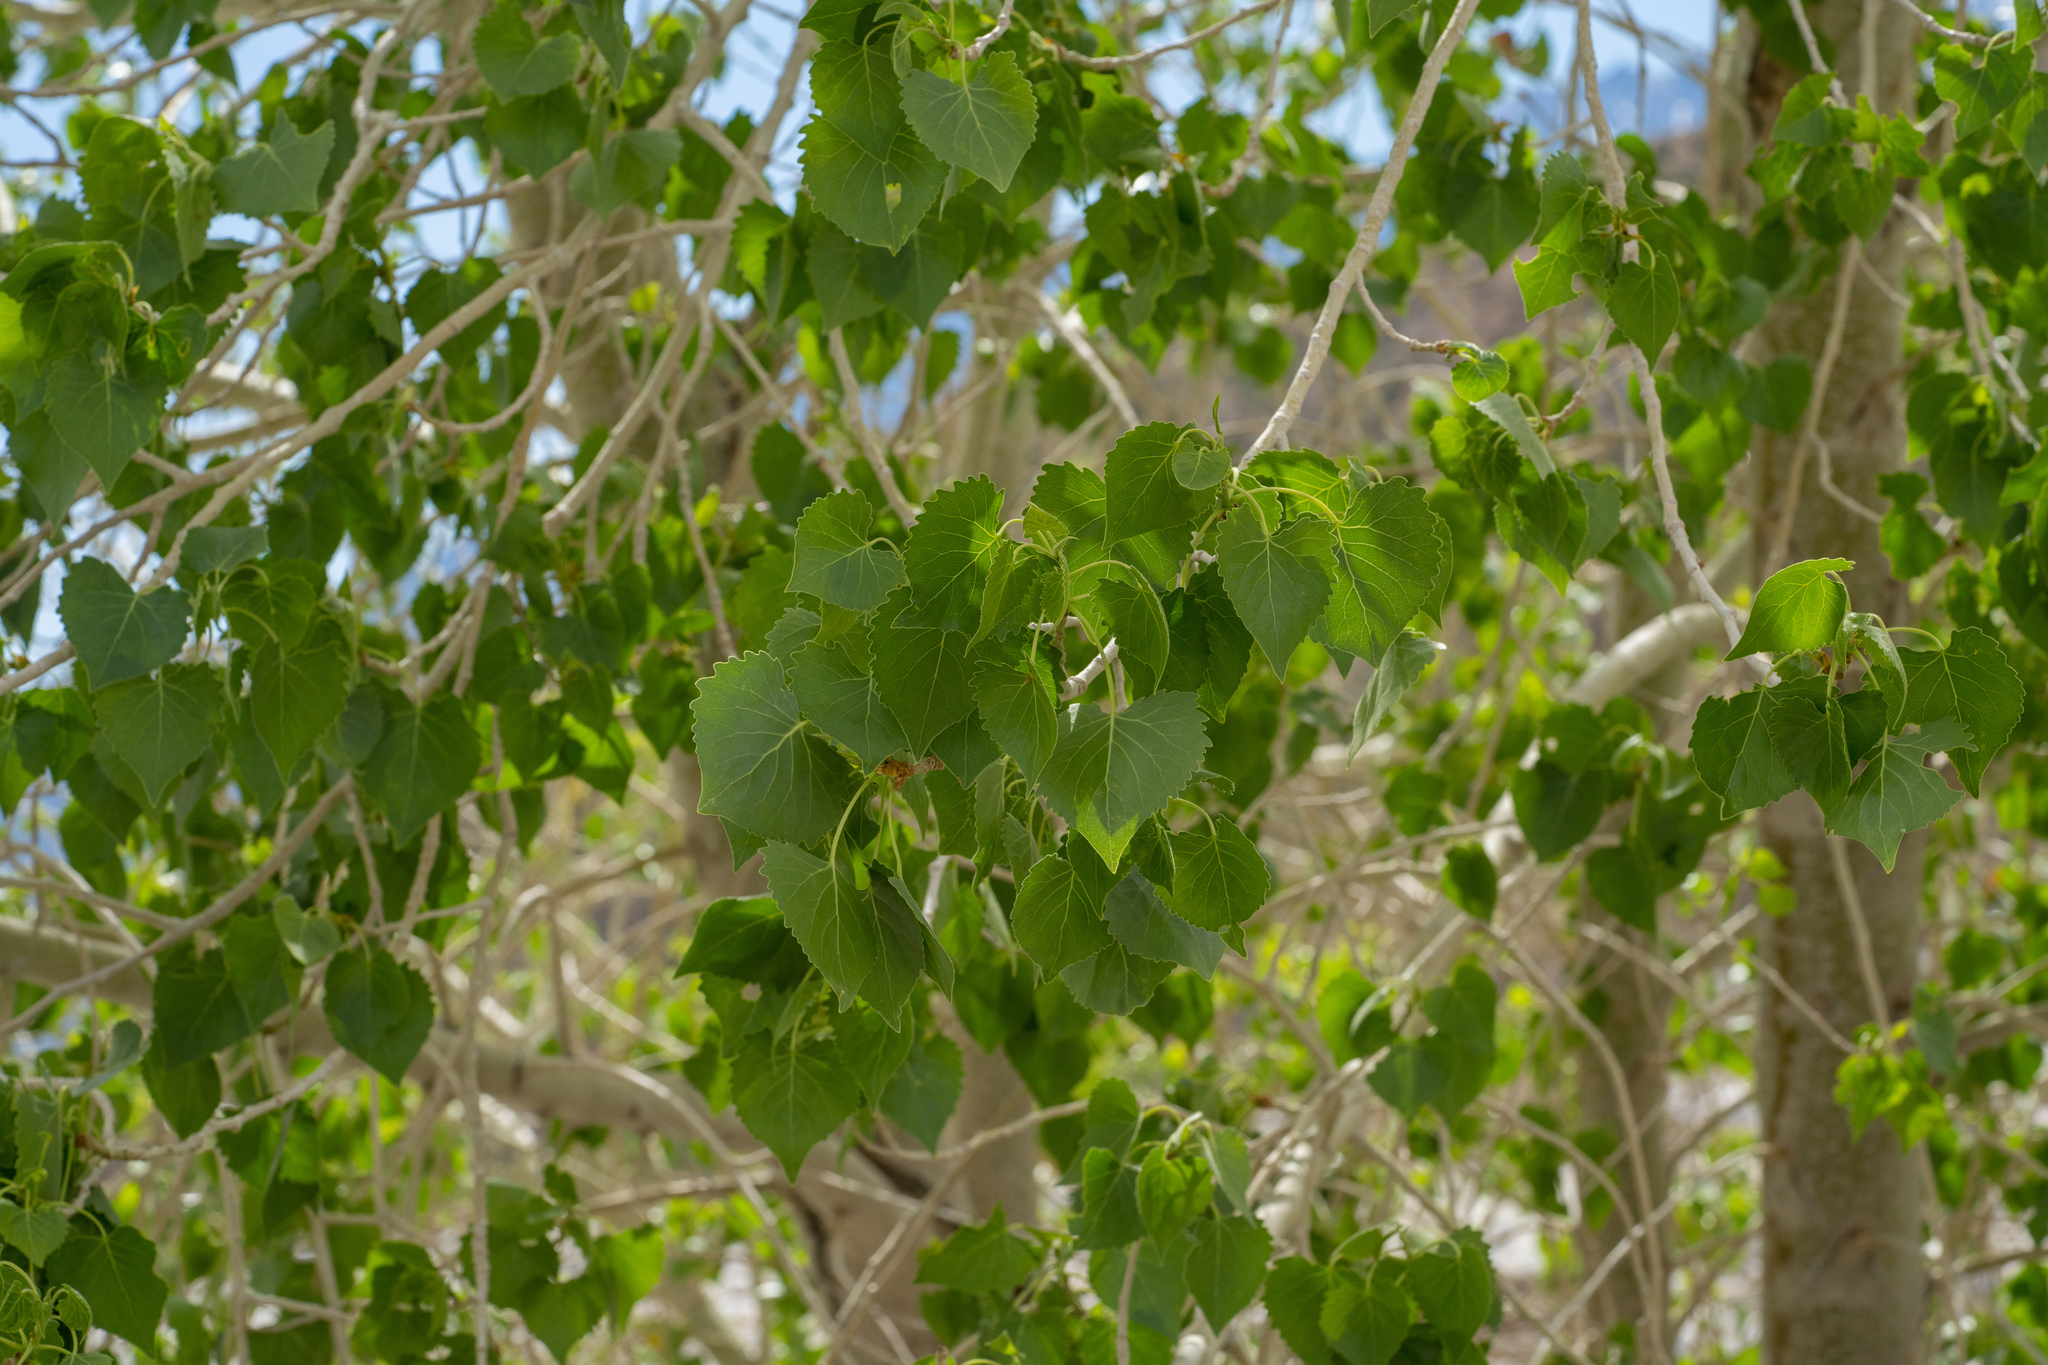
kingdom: Plantae
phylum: Tracheophyta
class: Magnoliopsida
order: Malpighiales
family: Salicaceae
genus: Populus
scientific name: Populus fremontii
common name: Fremont's cottonwood
